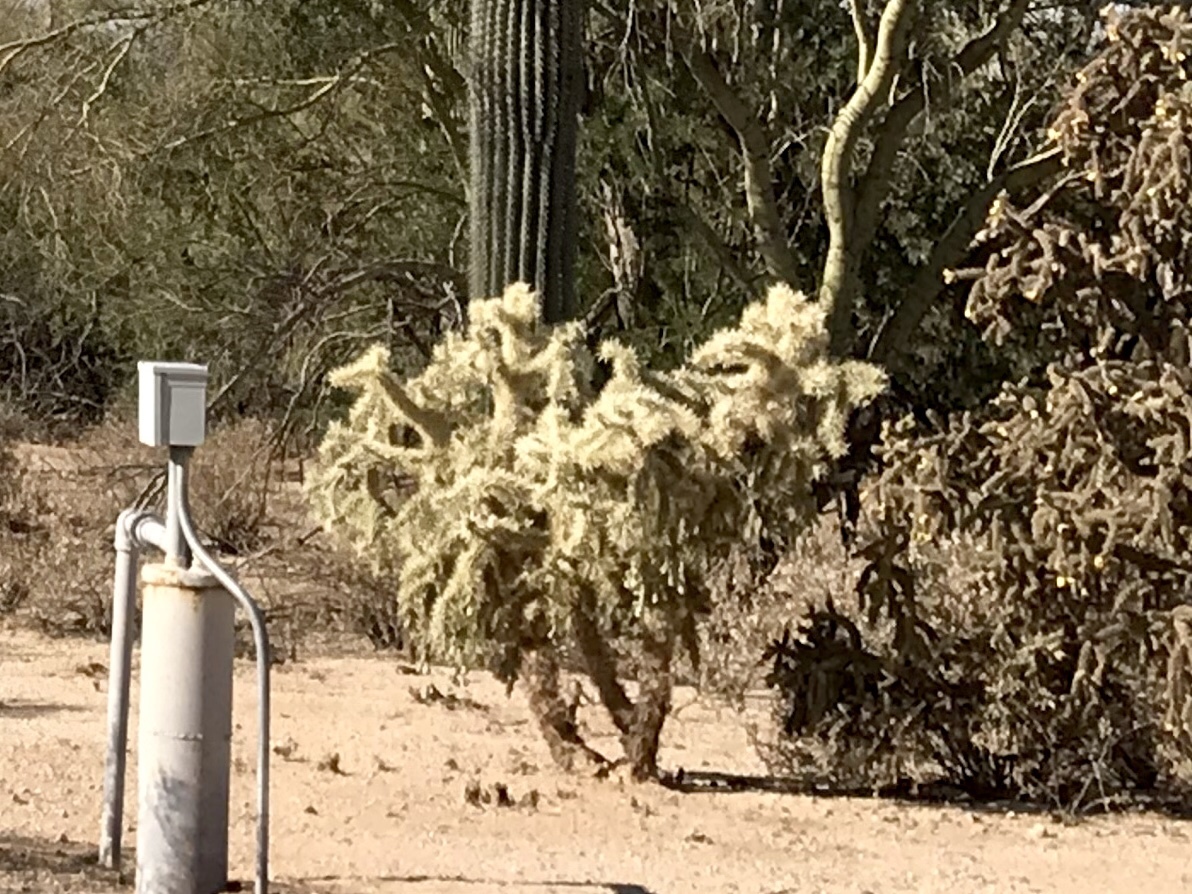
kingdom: Plantae
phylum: Tracheophyta
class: Magnoliopsida
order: Caryophyllales
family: Cactaceae
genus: Cylindropuntia
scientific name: Cylindropuntia fulgida
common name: Jumping cholla
